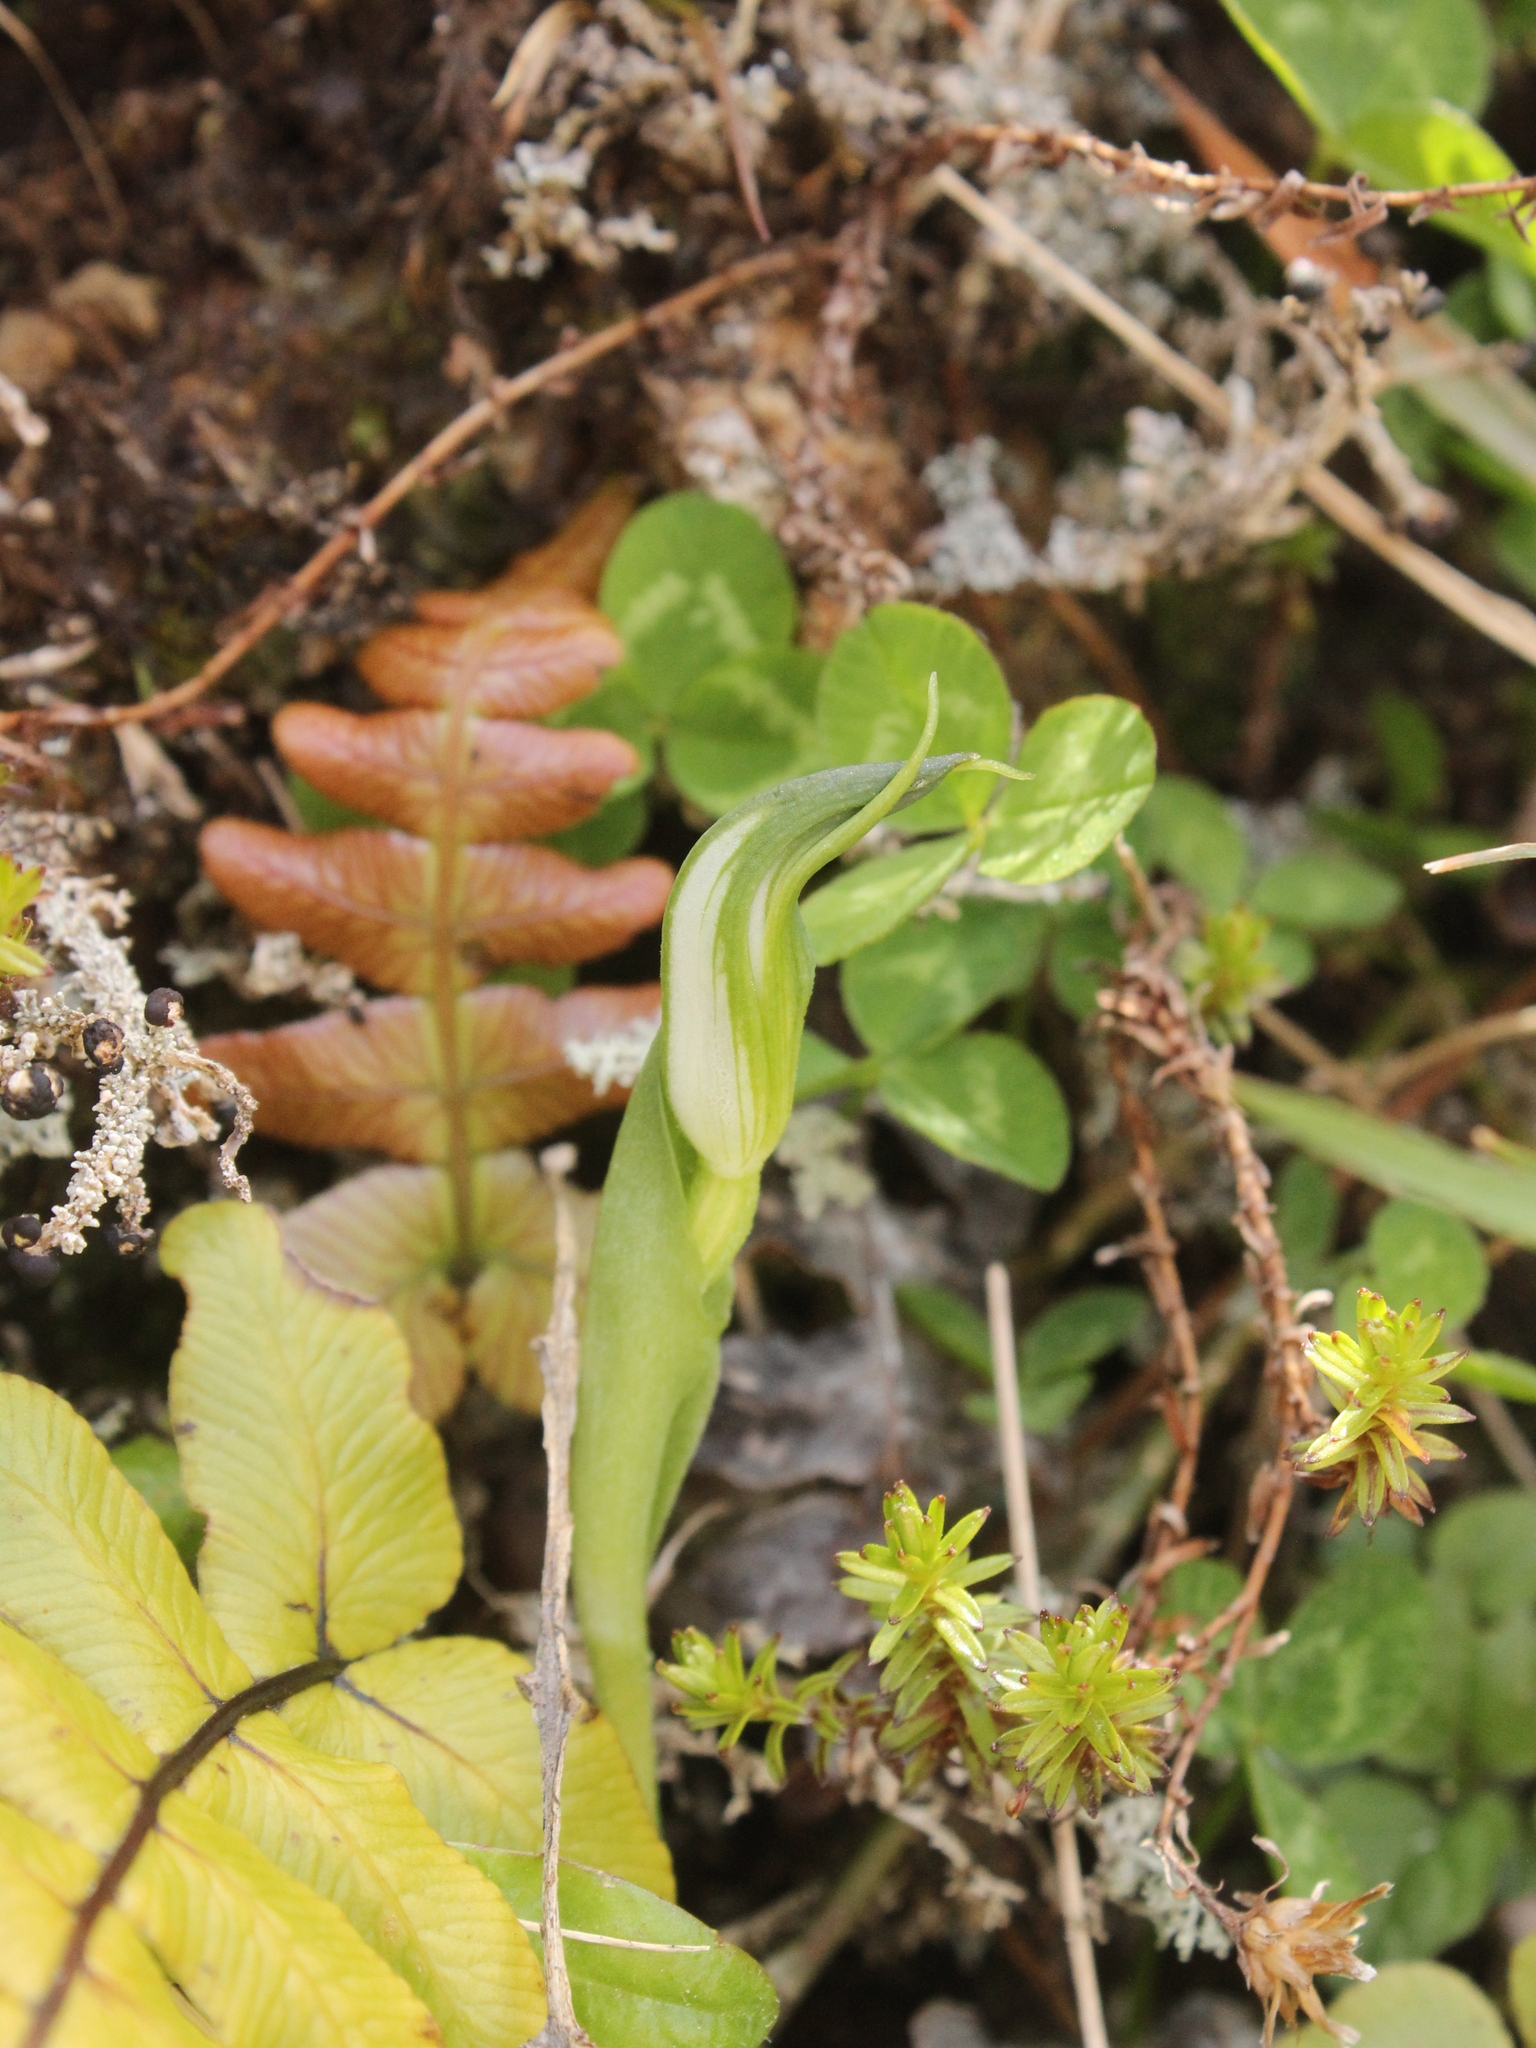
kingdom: Plantae
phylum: Tracheophyta
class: Liliopsida
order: Asparagales
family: Orchidaceae
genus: Pterostylis
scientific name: Pterostylis foliata
